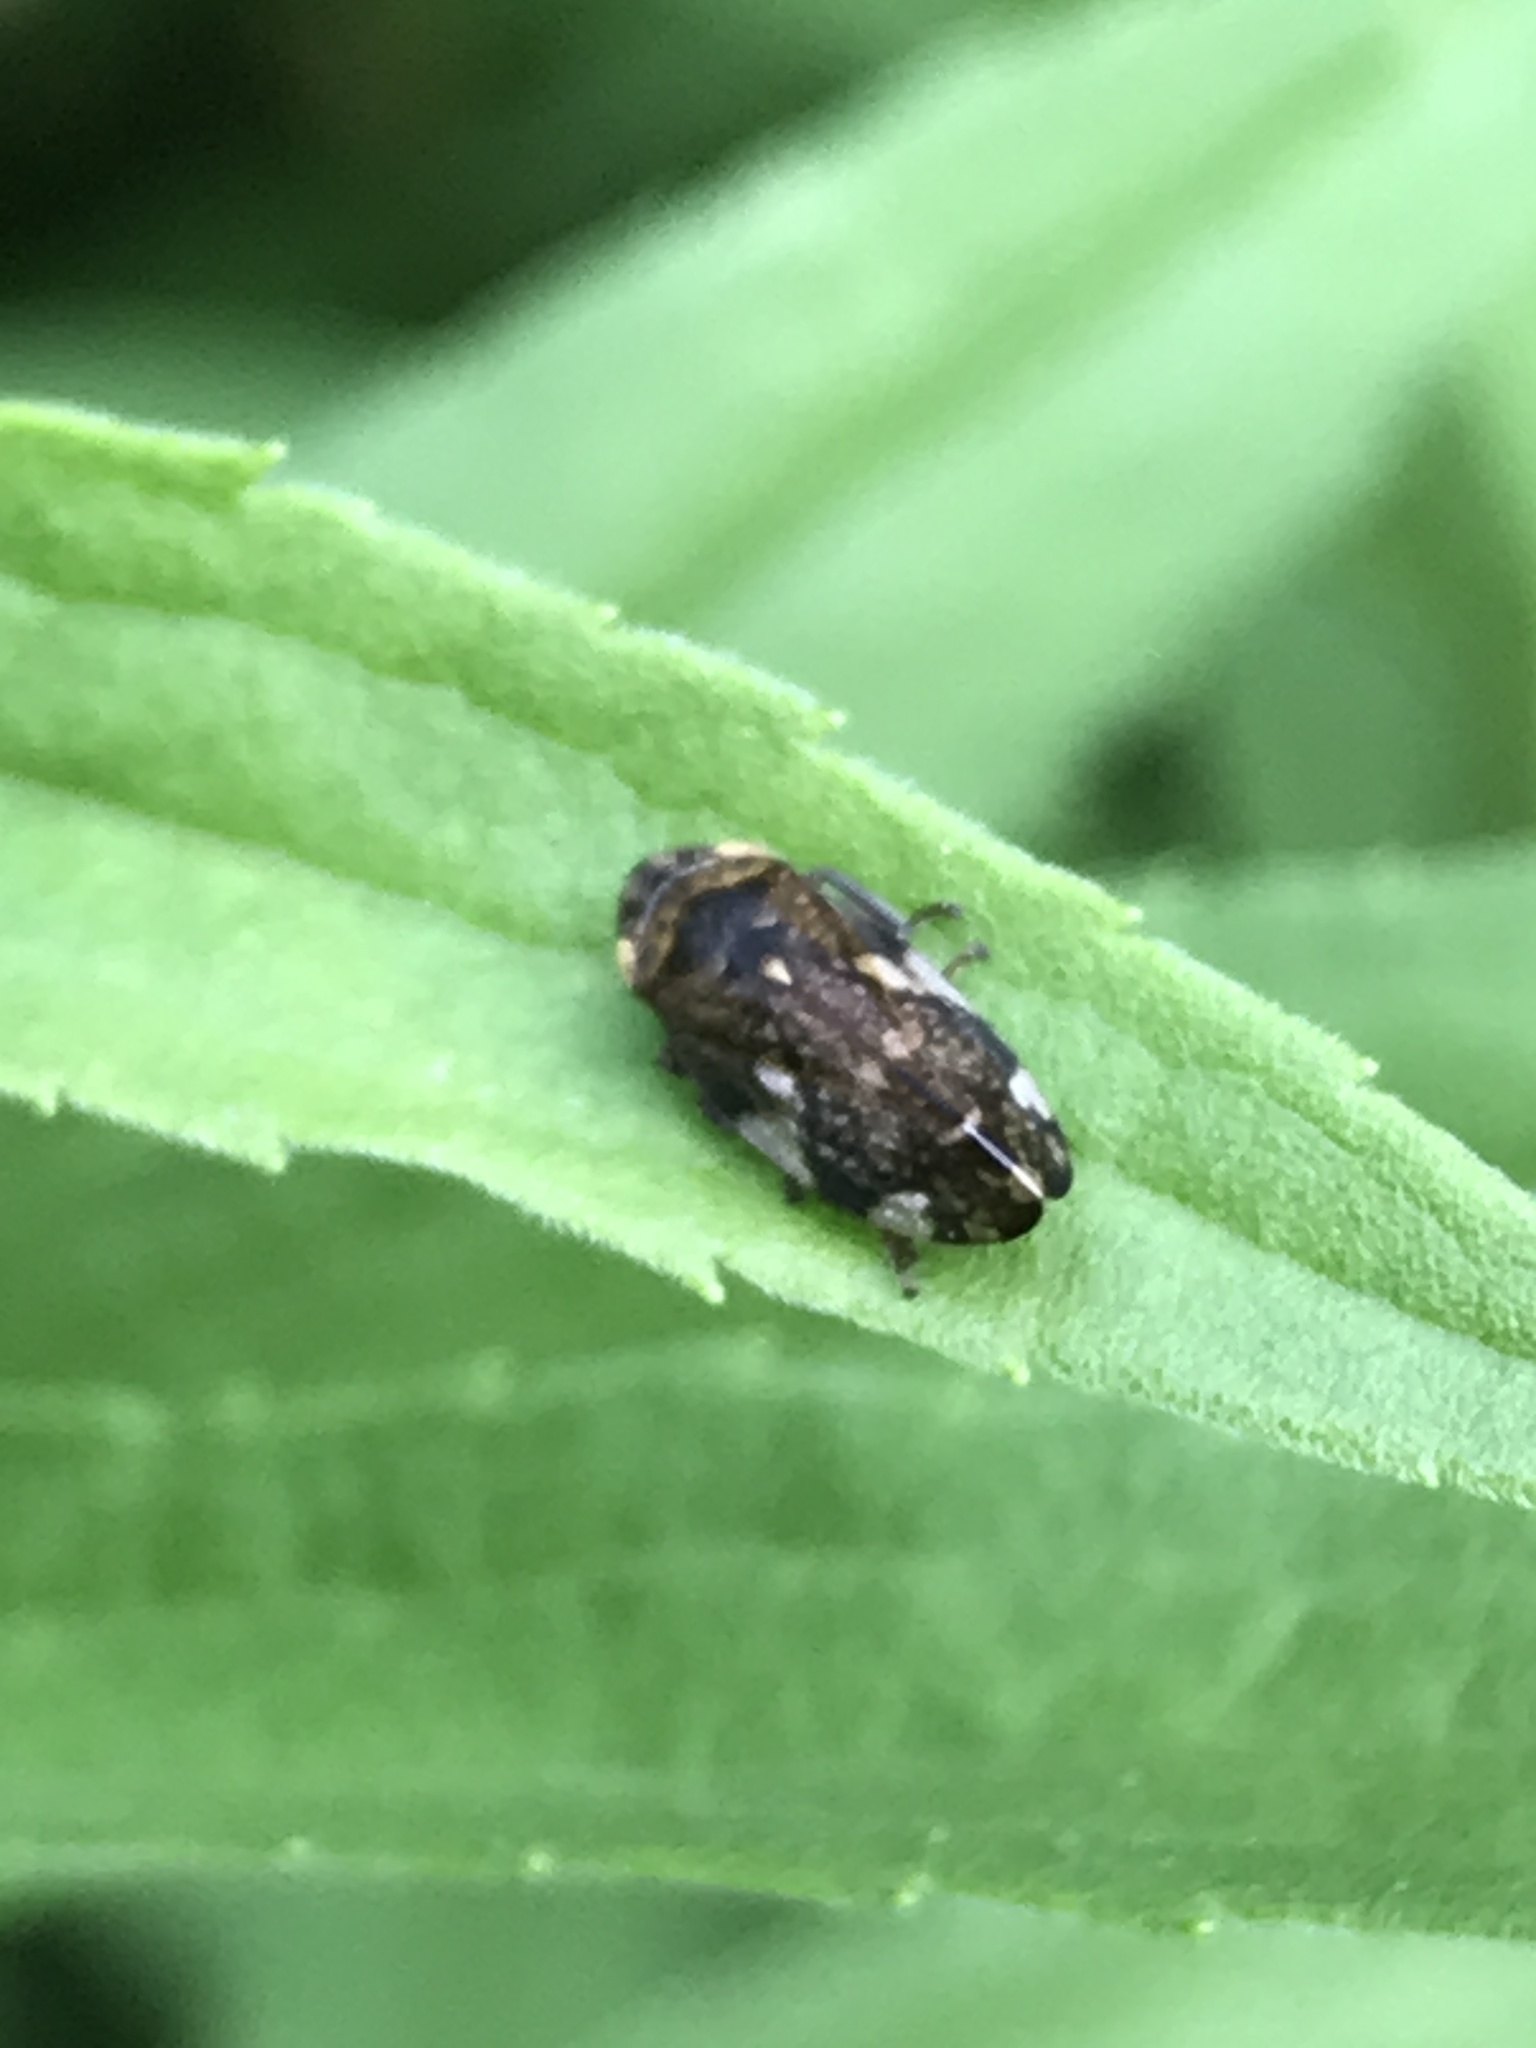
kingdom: Animalia
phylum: Arthropoda
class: Insecta
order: Hemiptera
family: Aphrophoridae
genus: Philaenus
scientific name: Philaenus spumarius
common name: Meadow spittlebug
